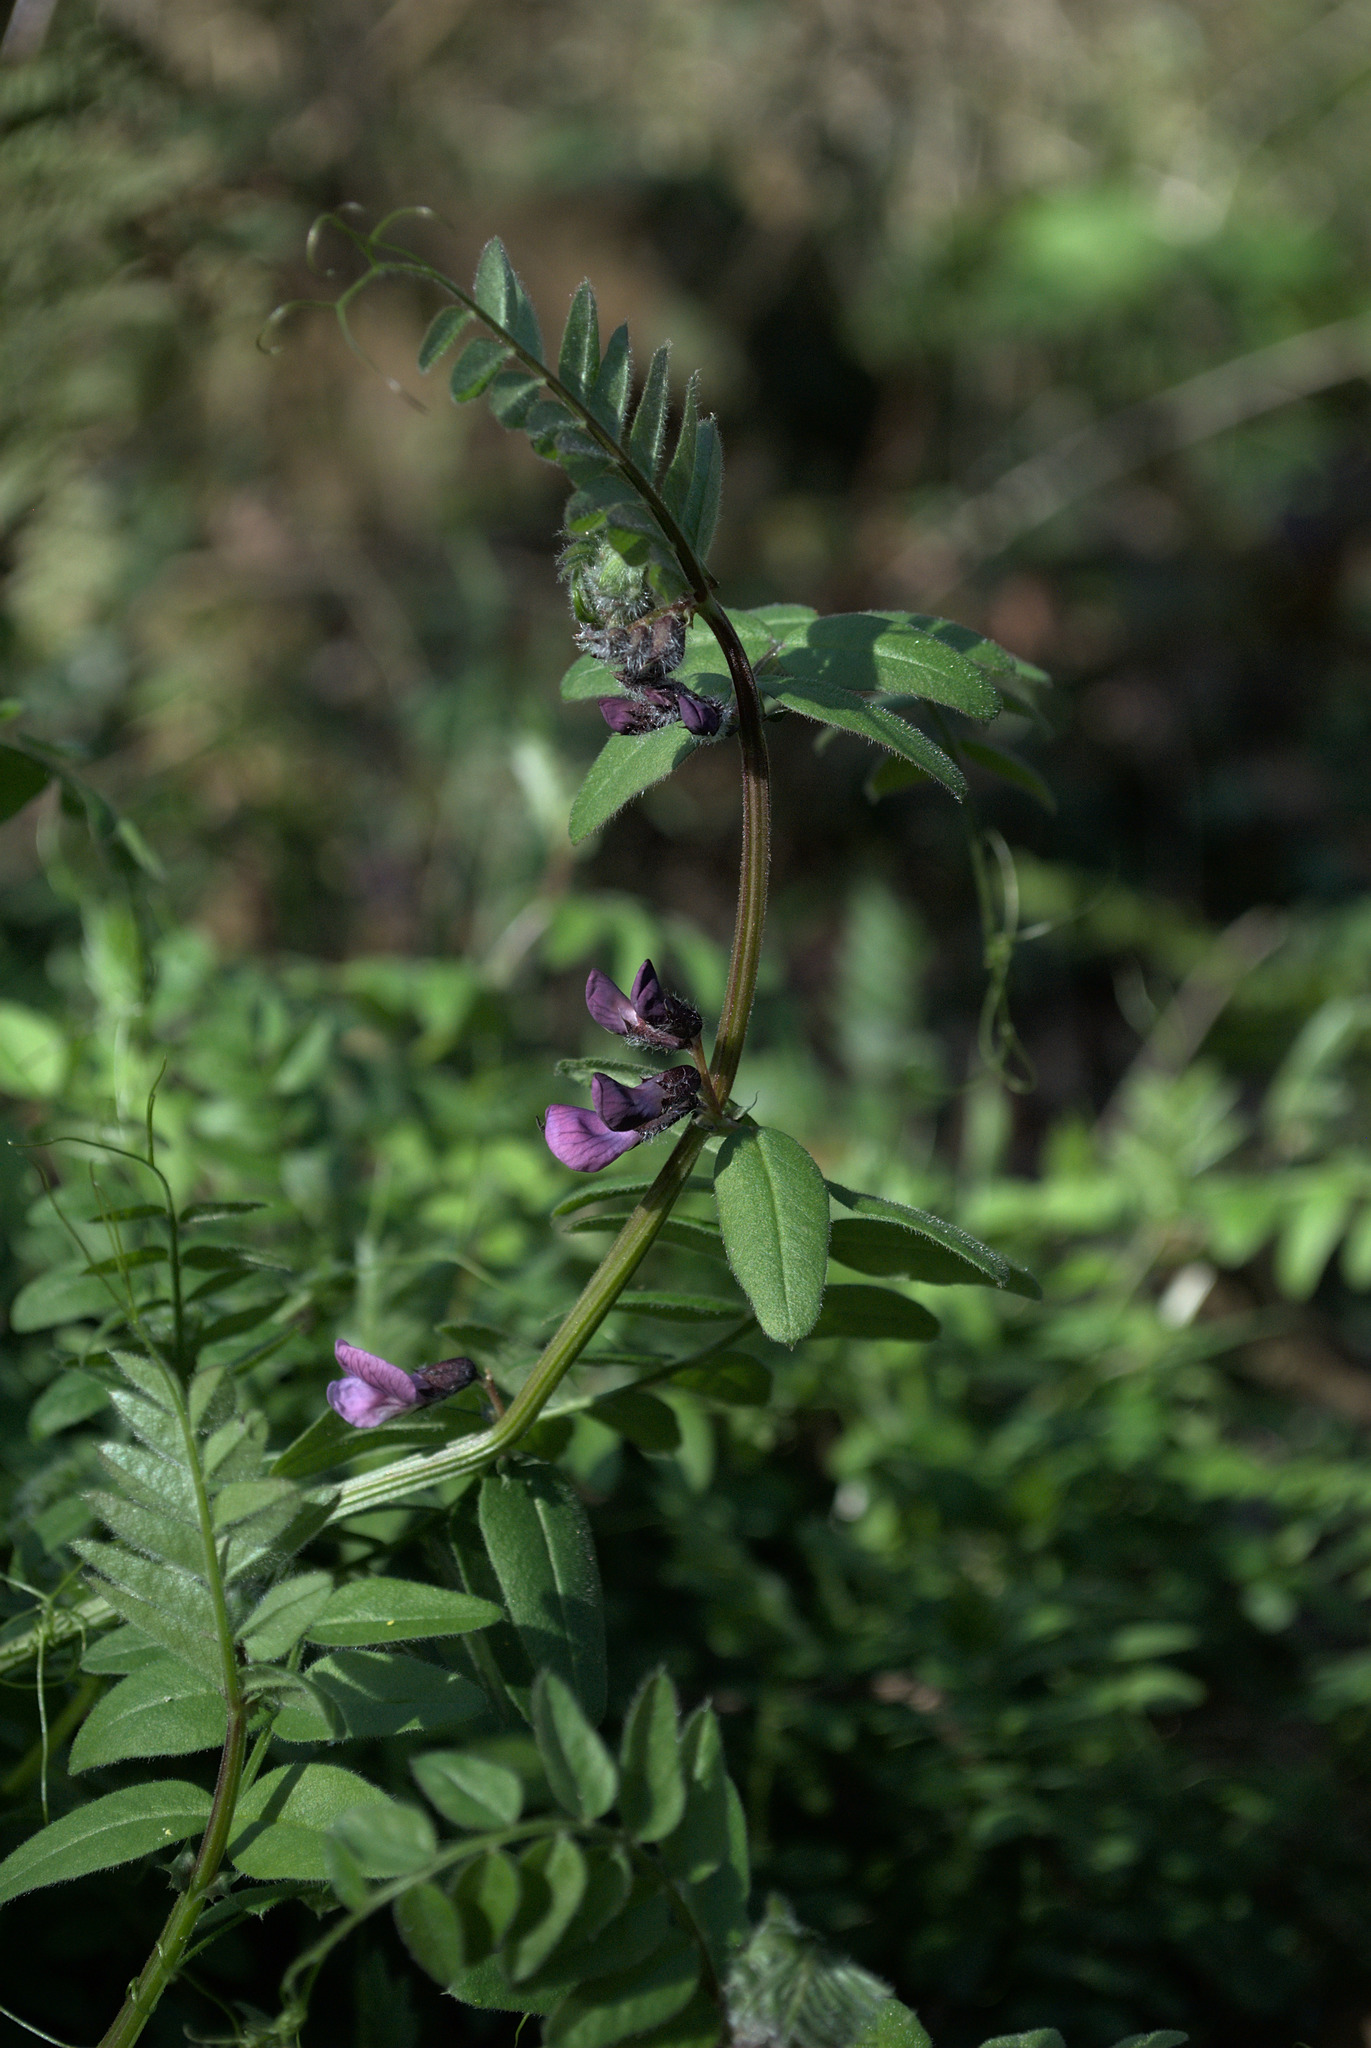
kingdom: Plantae
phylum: Tracheophyta
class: Magnoliopsida
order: Fabales
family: Fabaceae
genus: Vicia
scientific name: Vicia sepium
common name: Bush vetch
